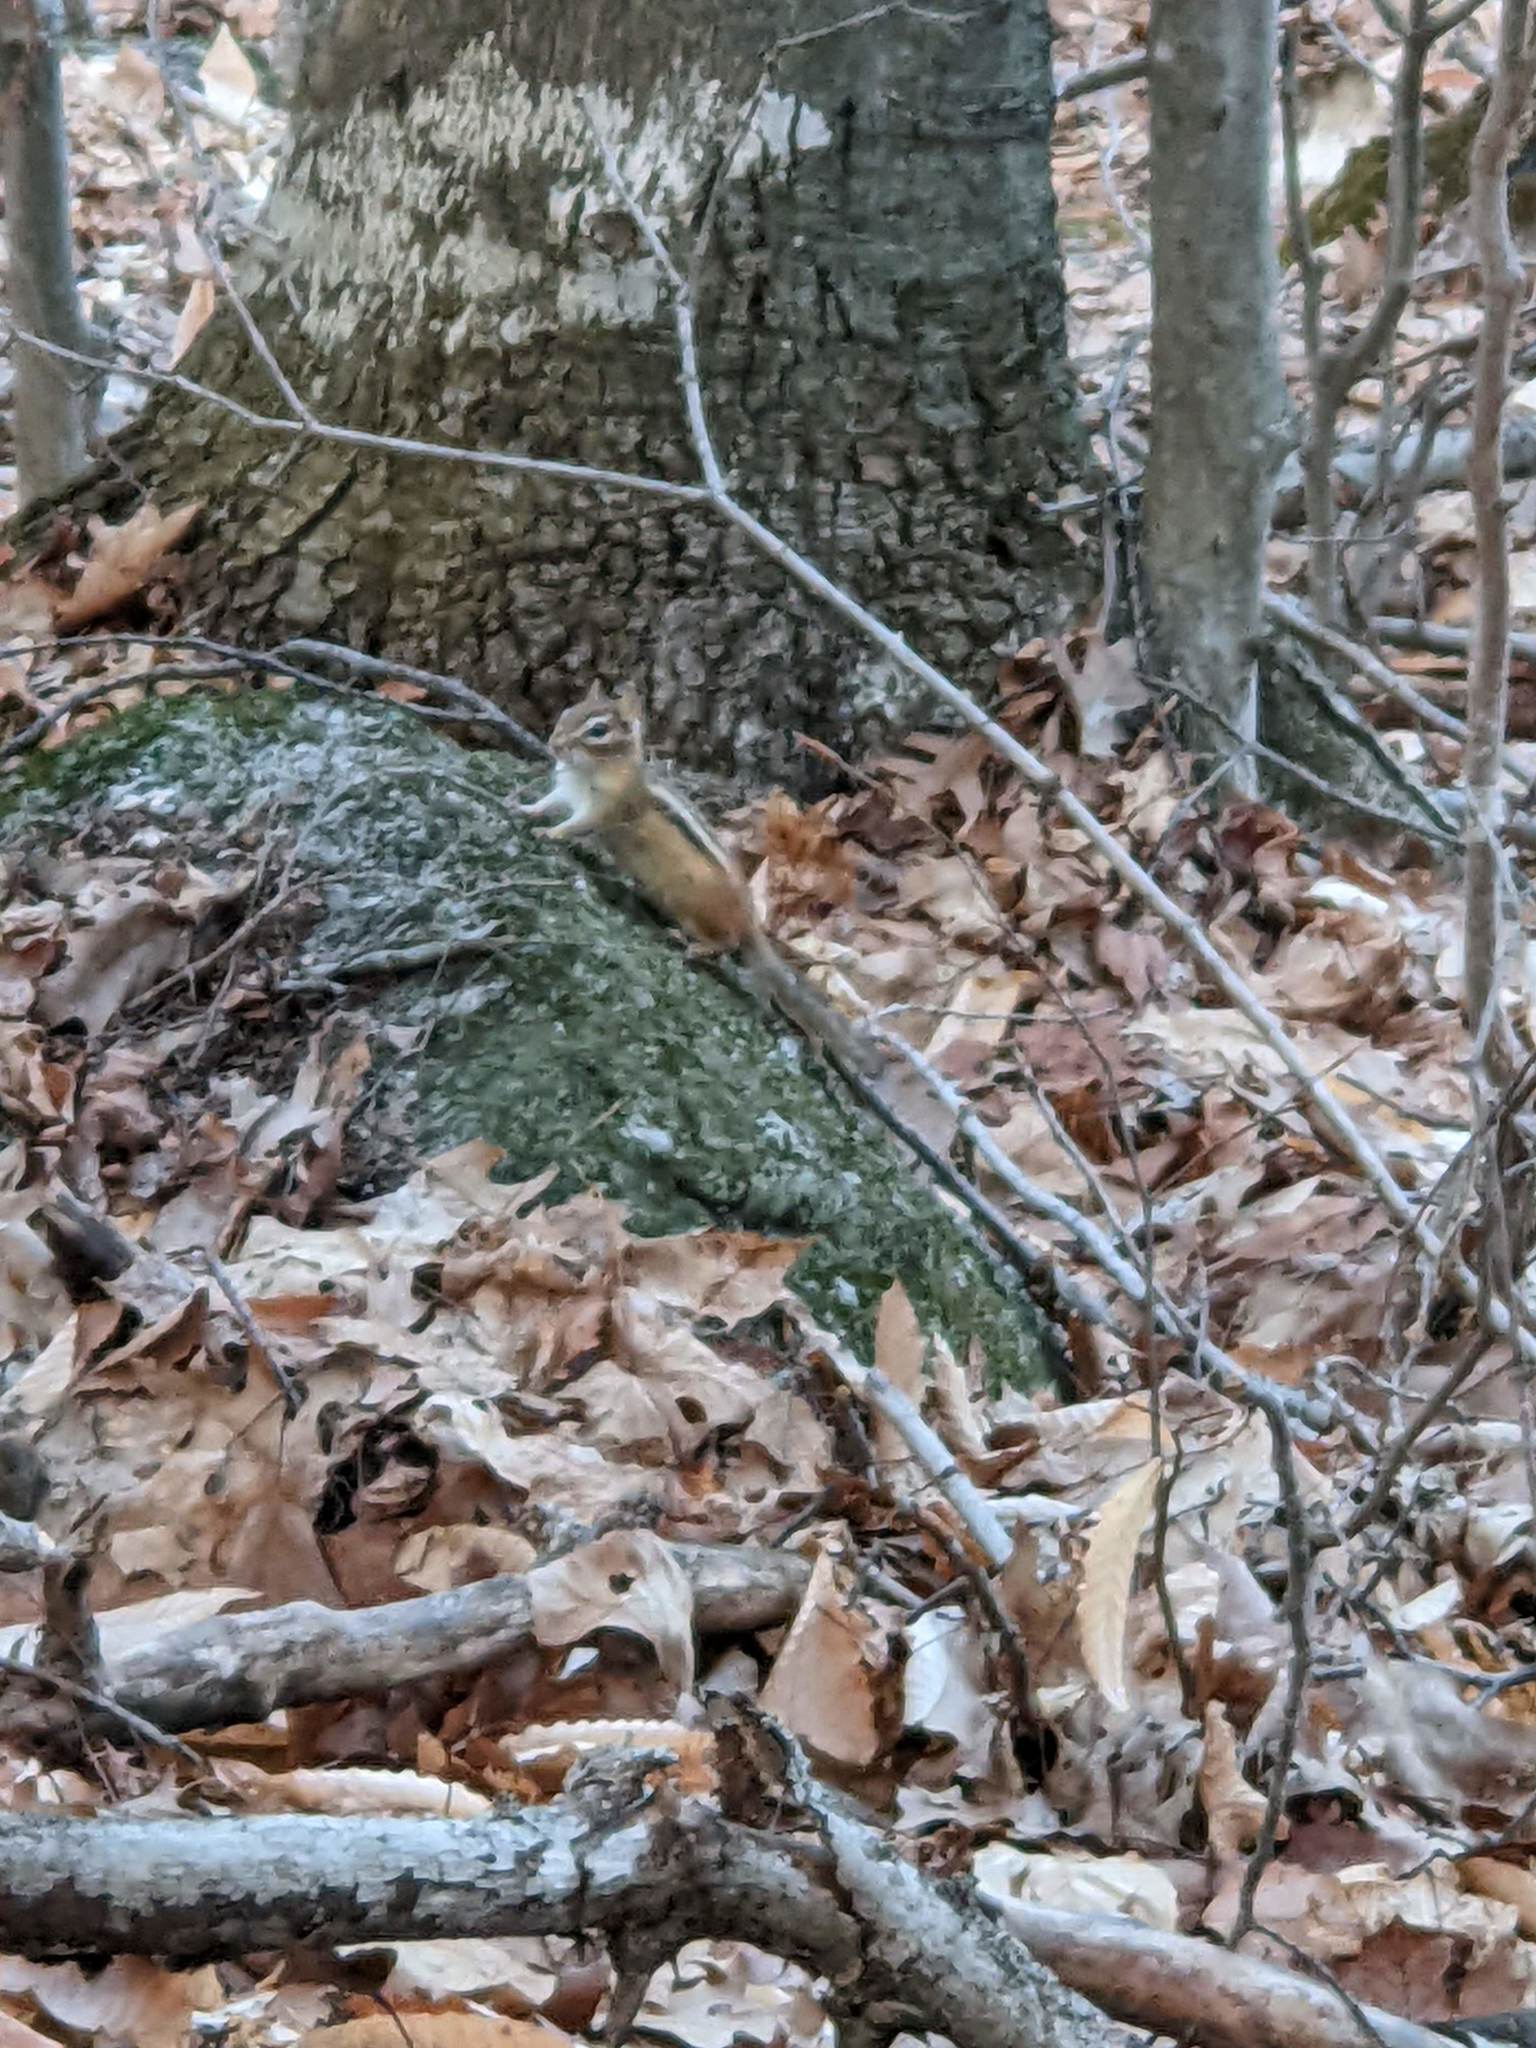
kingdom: Animalia
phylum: Chordata
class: Mammalia
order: Rodentia
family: Sciuridae
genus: Tamias
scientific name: Tamias striatus
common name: Eastern chipmunk
